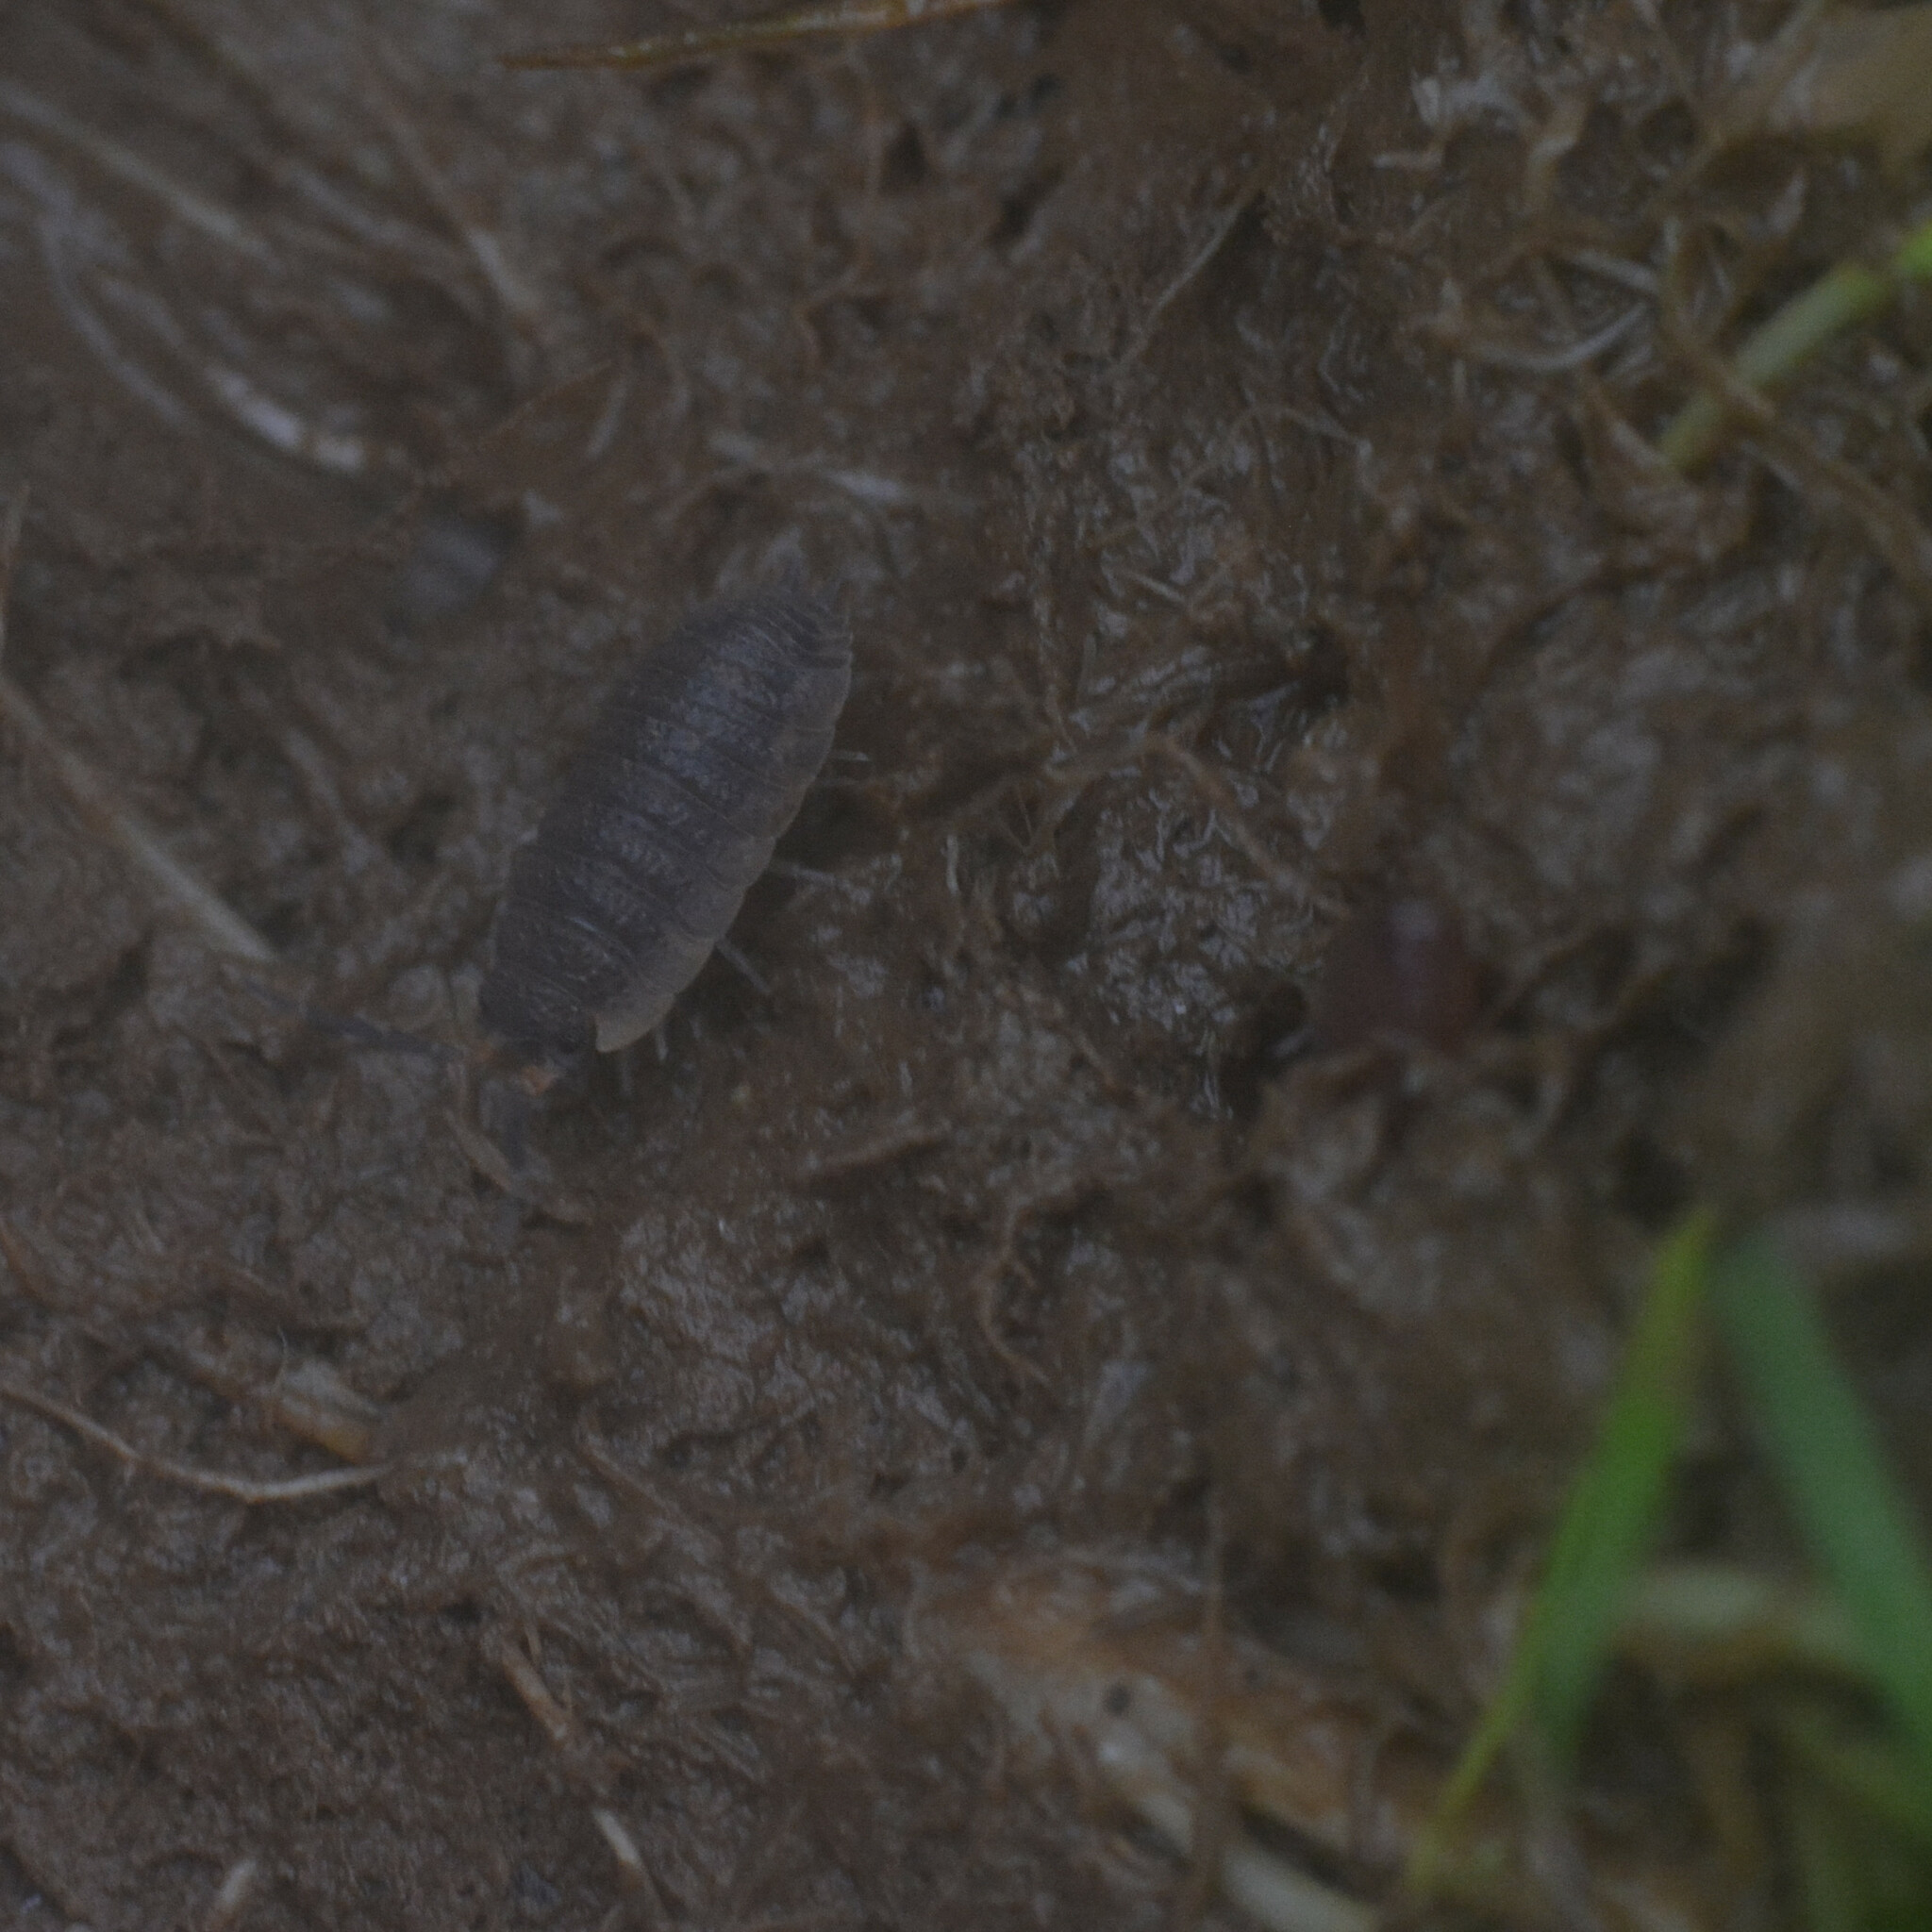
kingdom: Animalia
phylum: Arthropoda
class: Malacostraca
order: Isopoda
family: Porcellionidae
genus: Porcellio
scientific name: Porcellio scaber
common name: Common rough woodlouse
